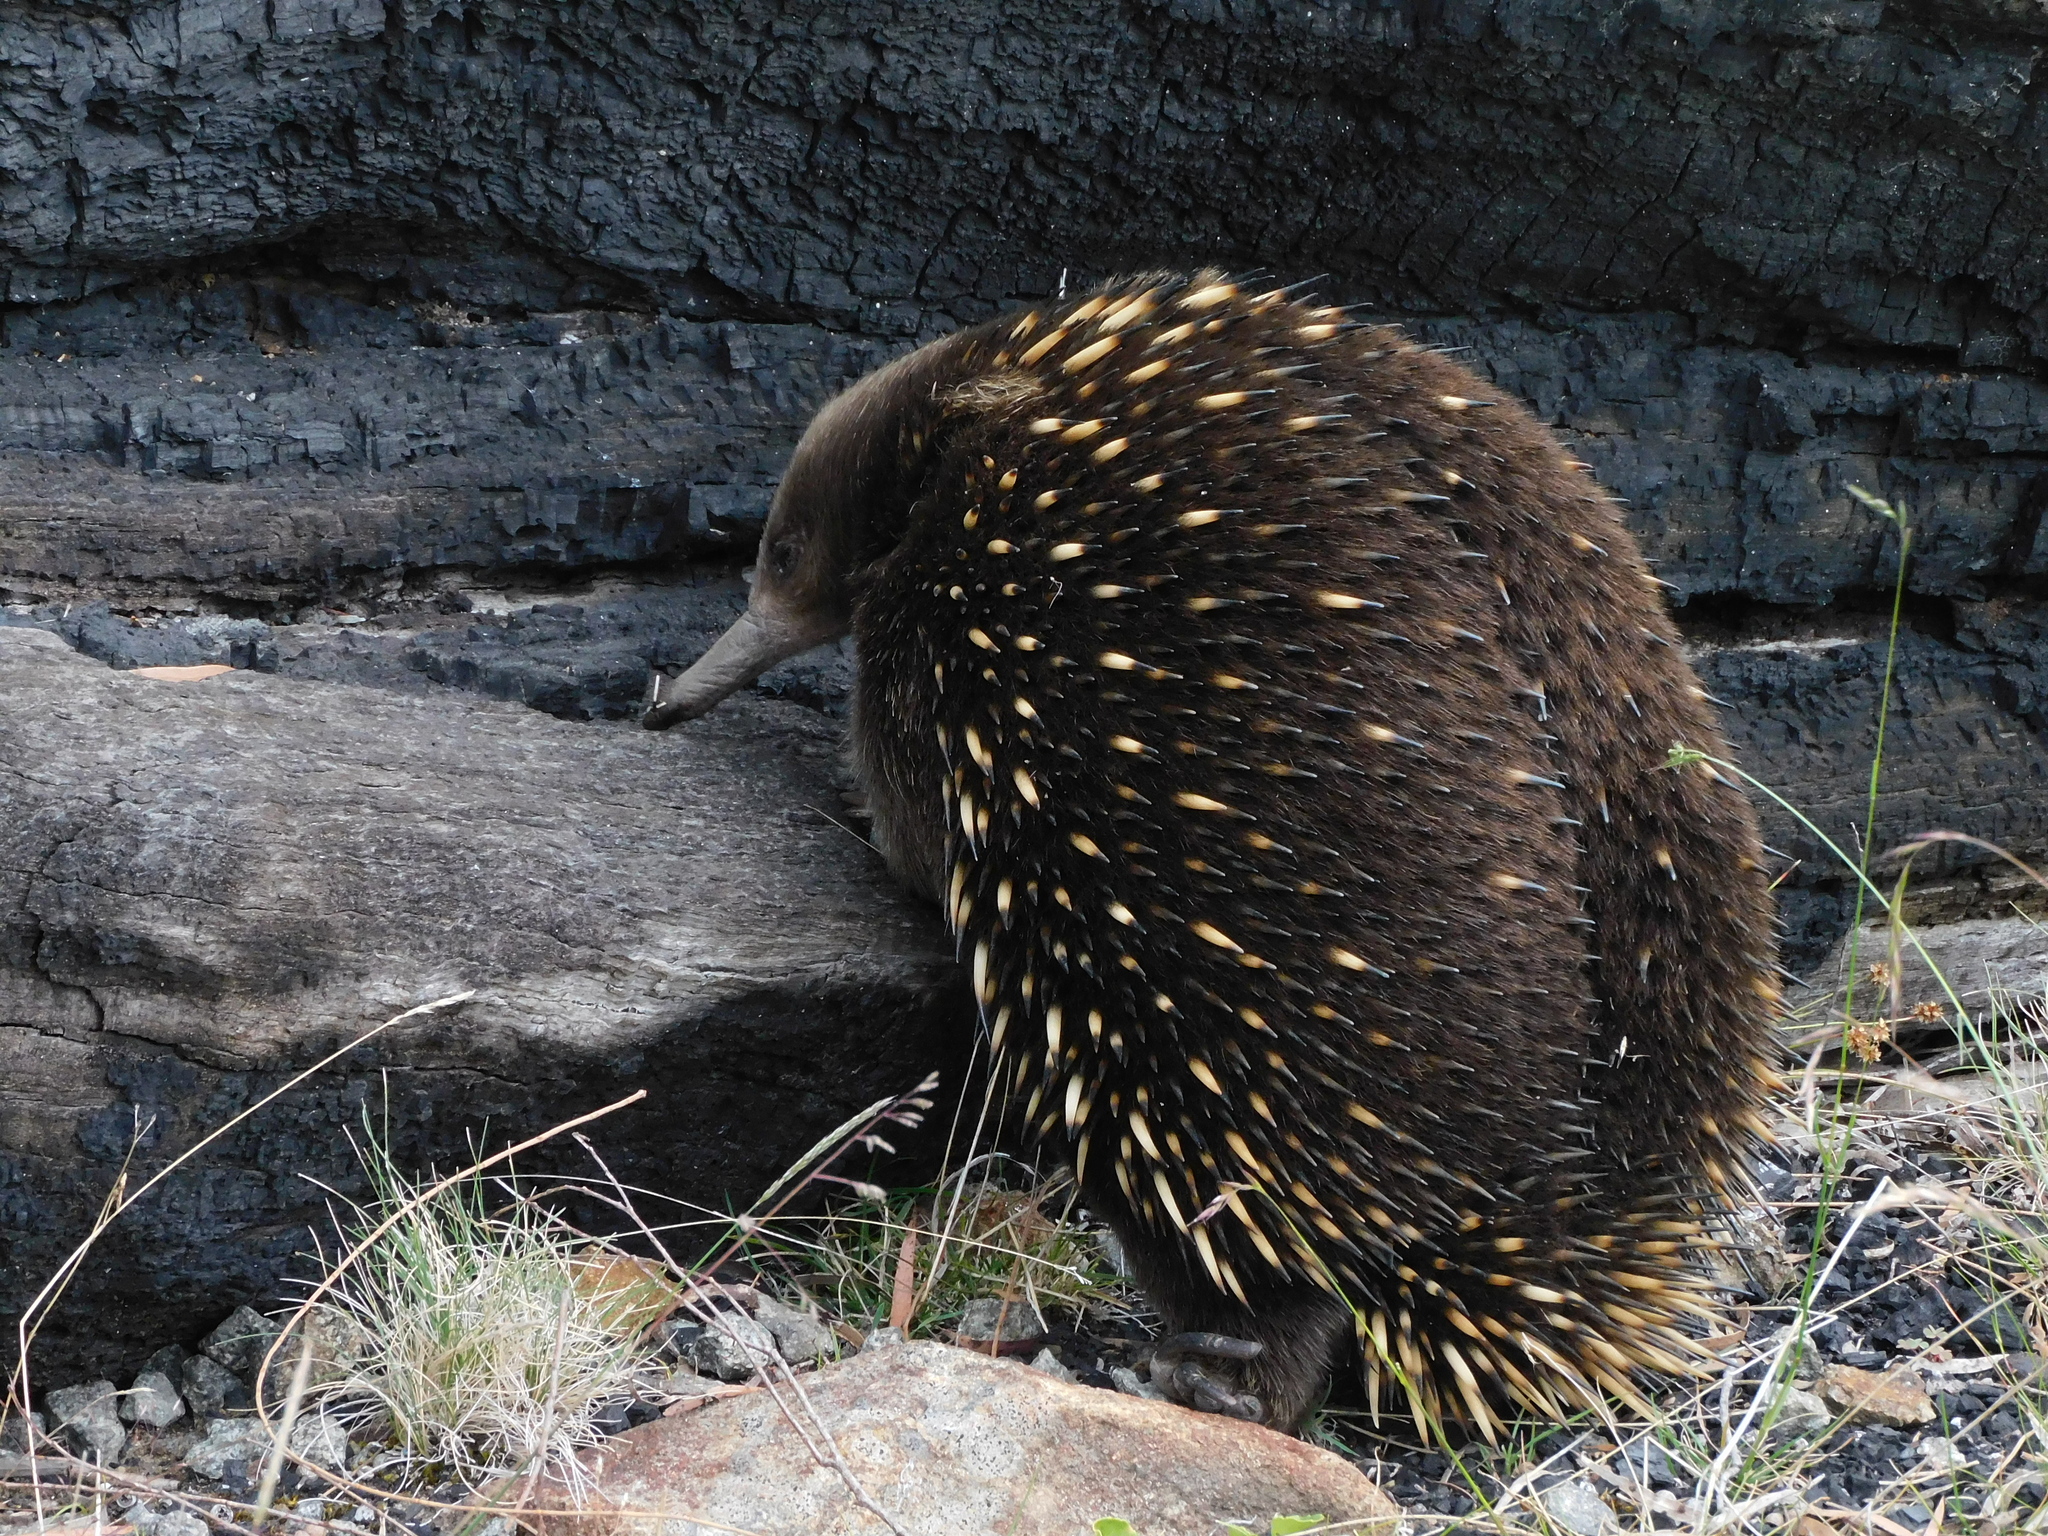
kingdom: Animalia
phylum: Chordata
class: Mammalia
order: Monotremata
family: Tachyglossidae
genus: Tachyglossus
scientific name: Tachyglossus aculeatus
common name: Short-beaked echidna
